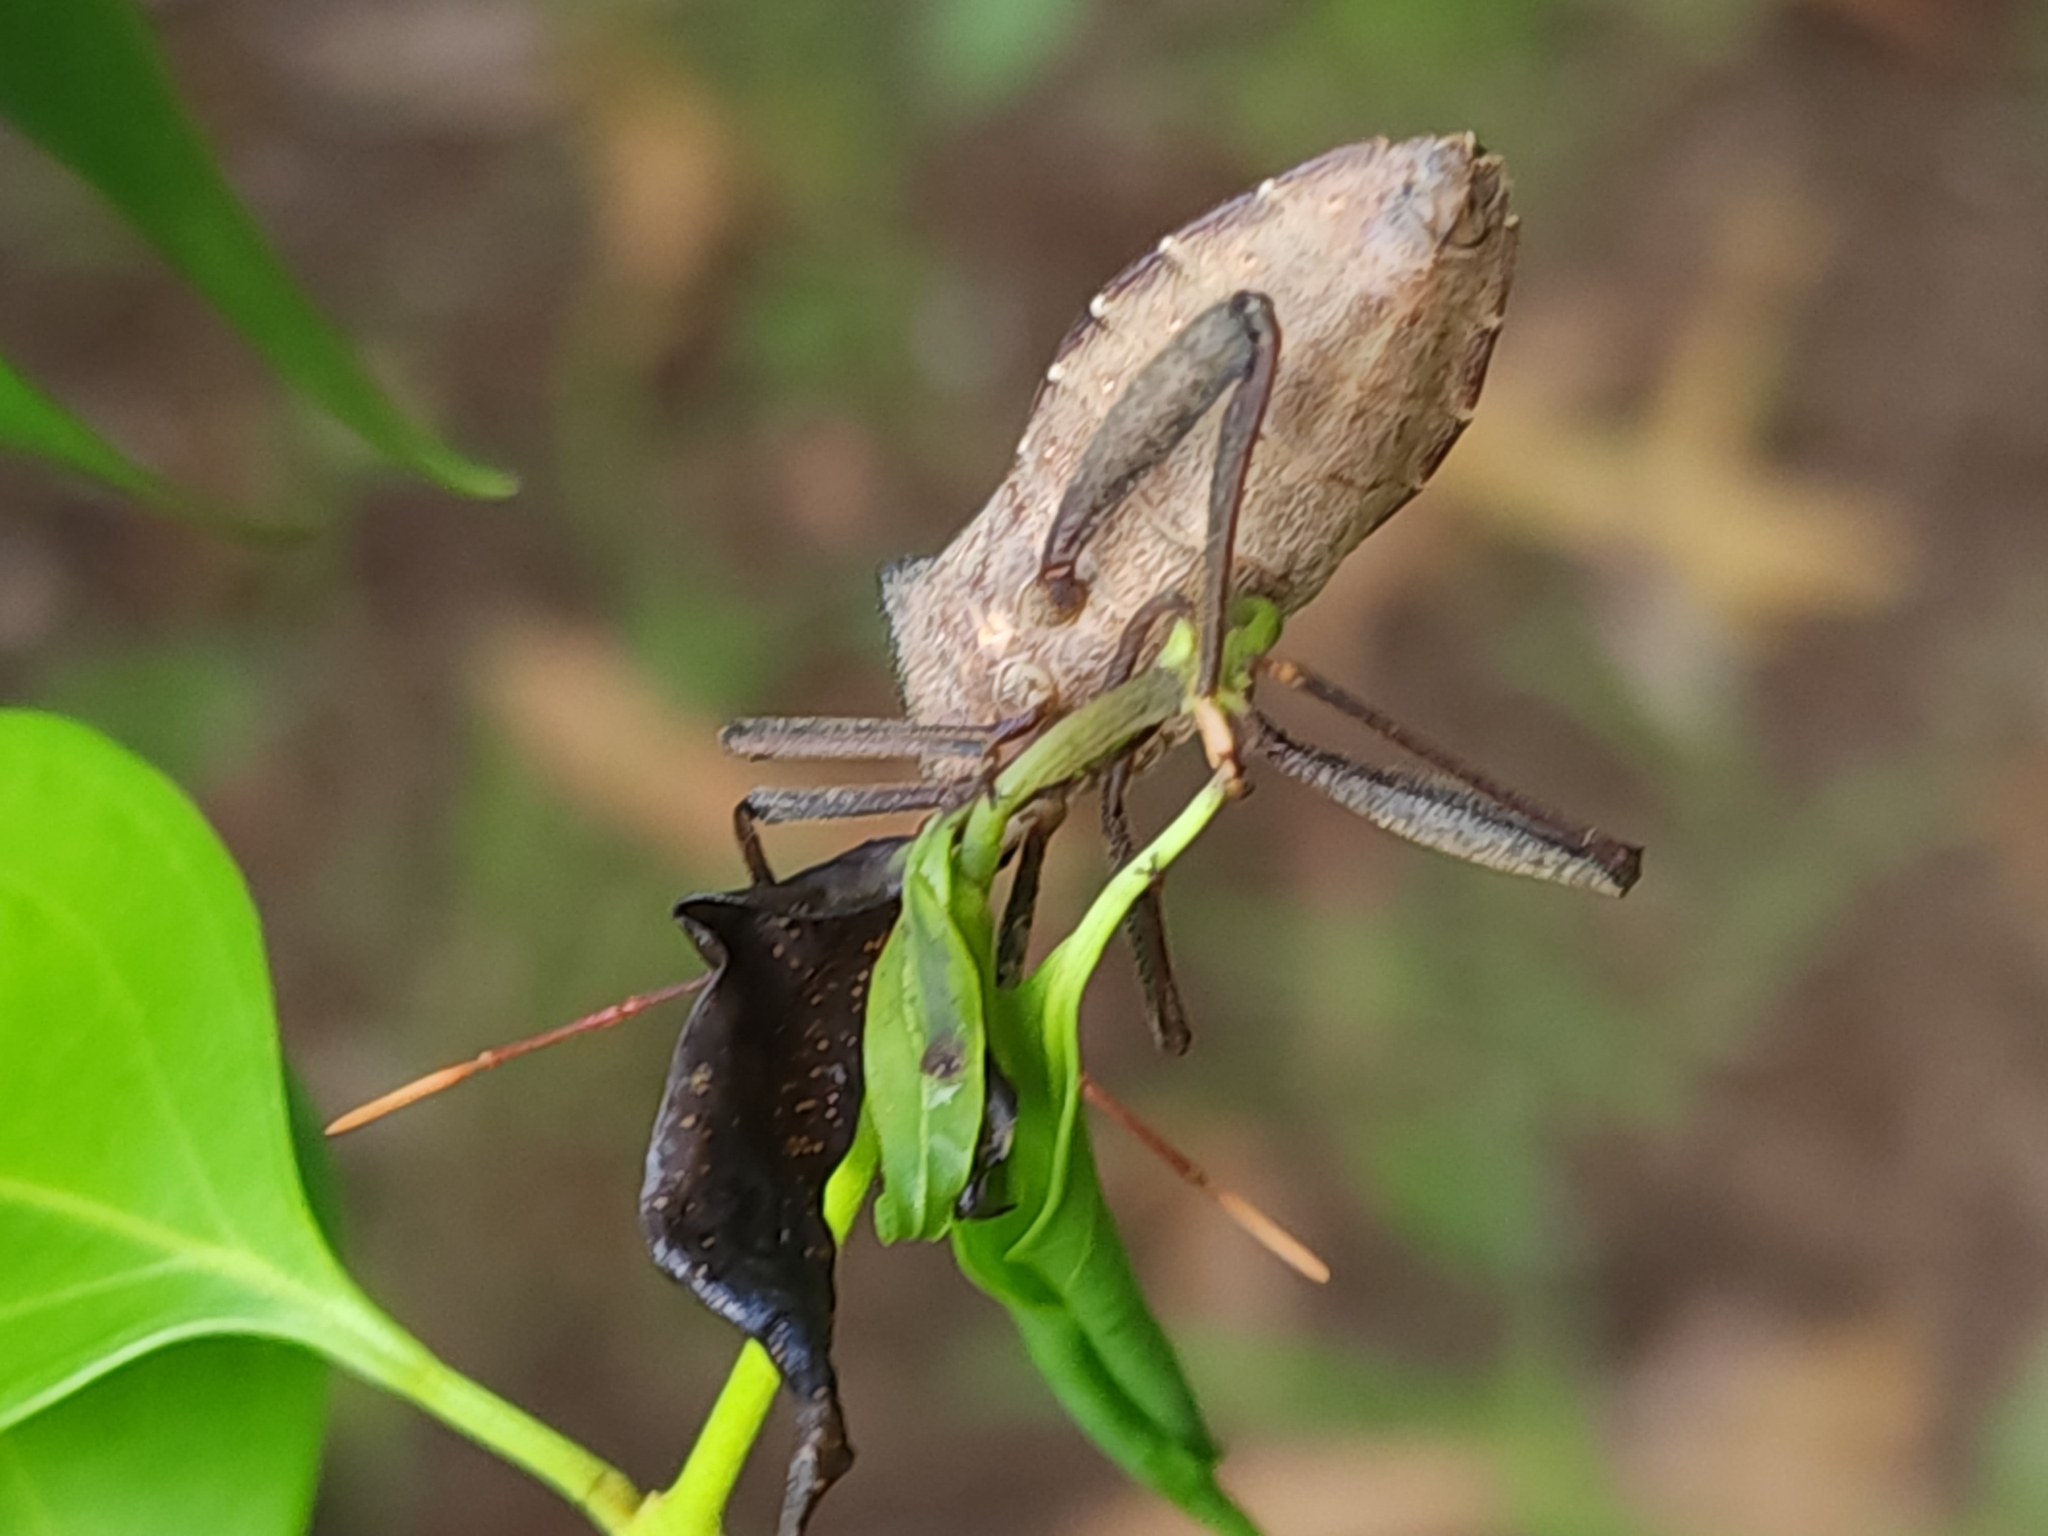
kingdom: Animalia
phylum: Arthropoda
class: Insecta
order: Hemiptera
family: Coreidae
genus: Mictis
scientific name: Mictis difficilis
